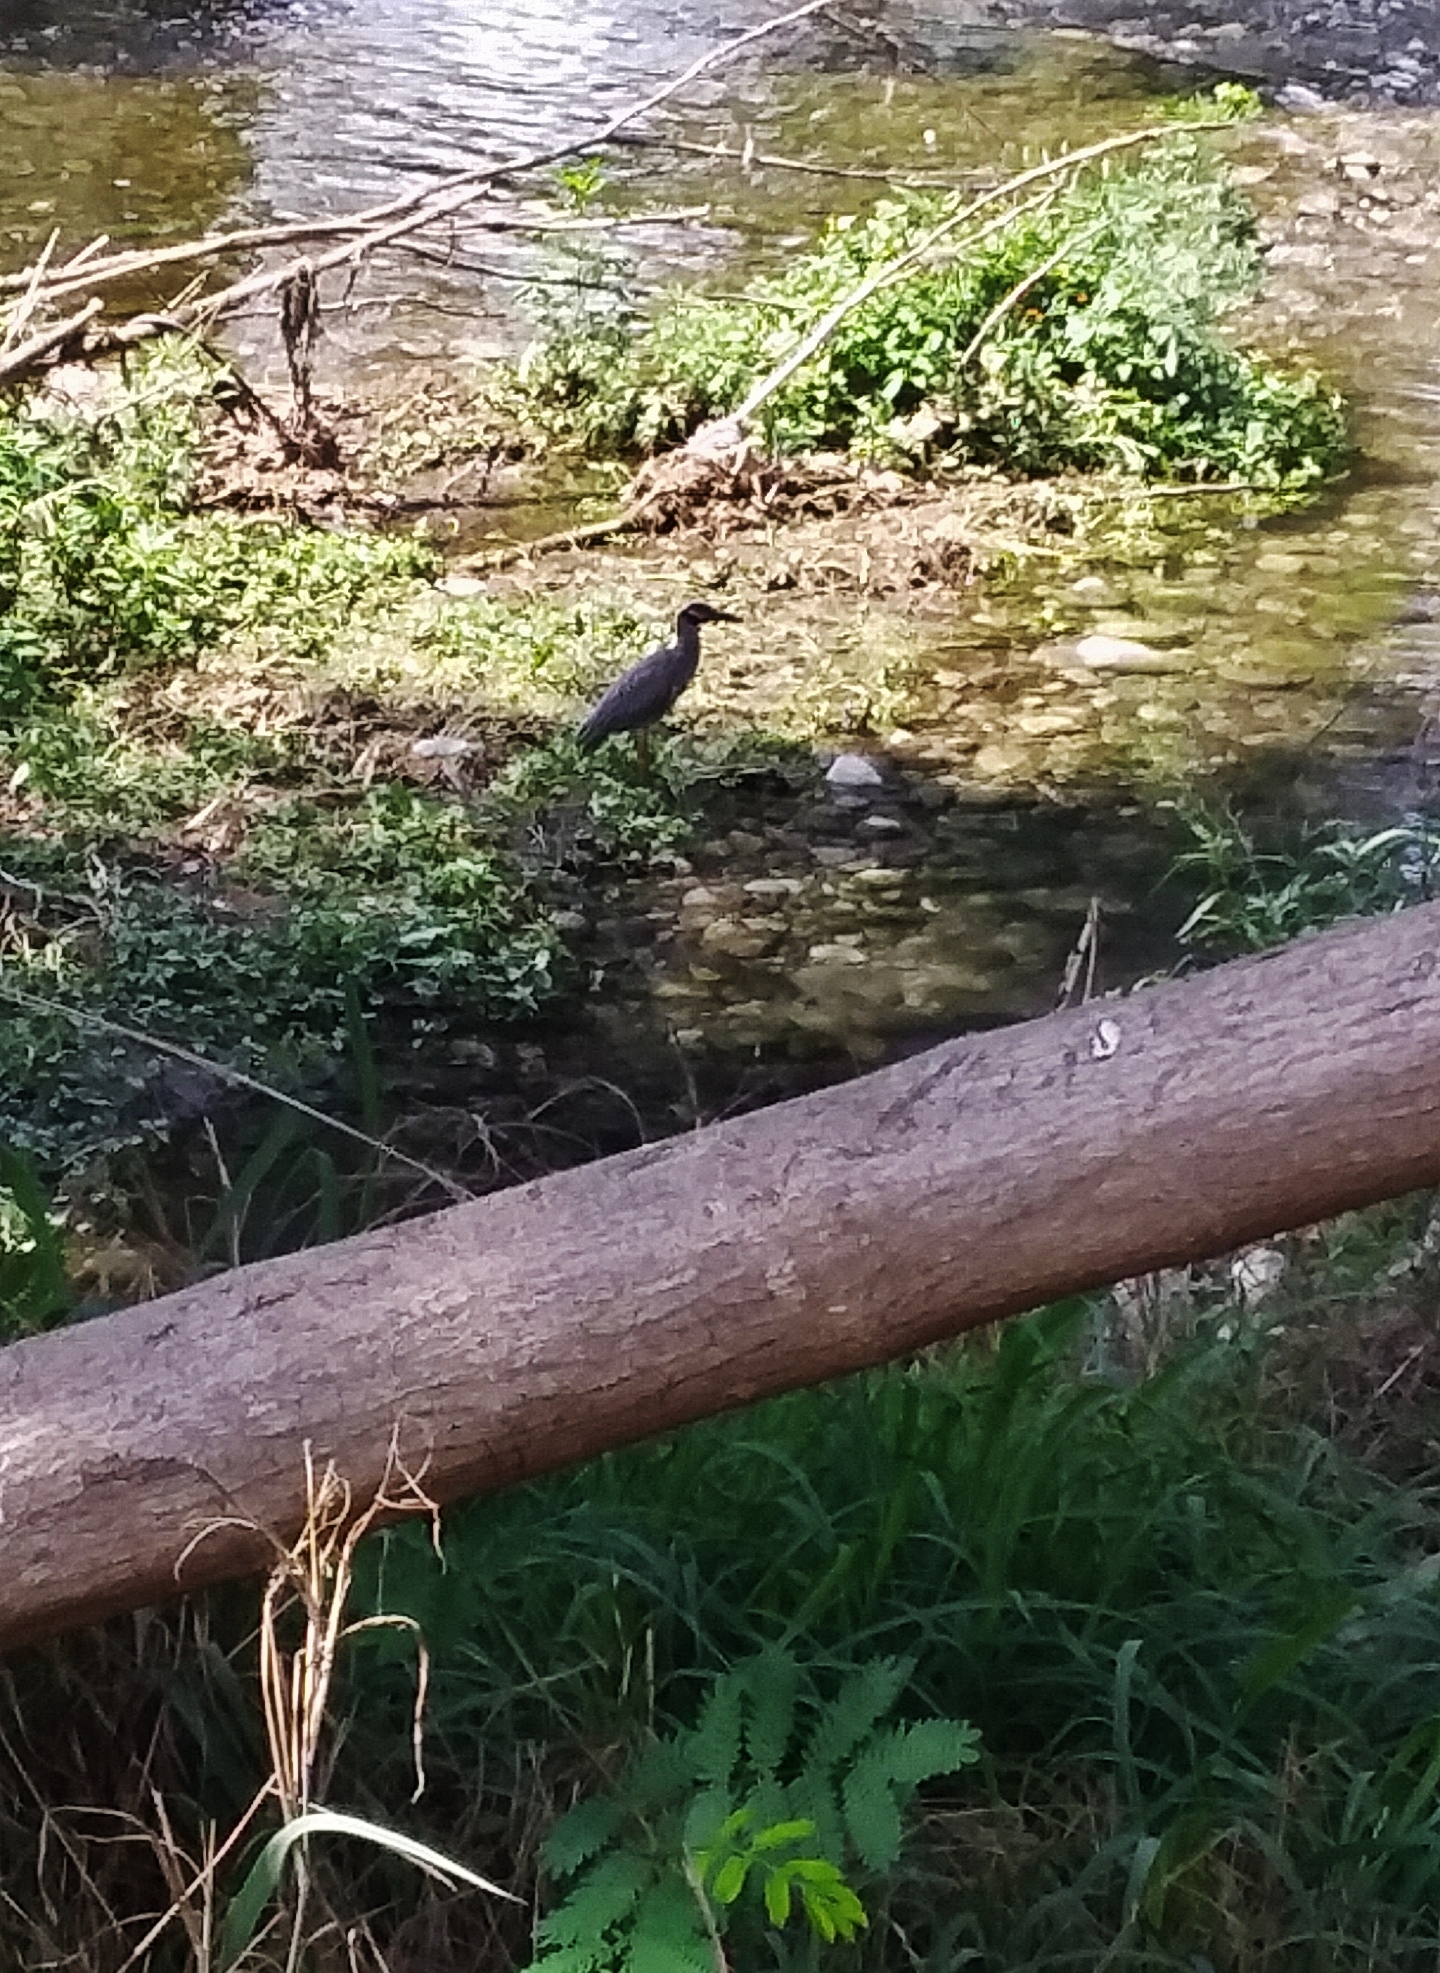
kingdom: Animalia
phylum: Chordata
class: Aves
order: Pelecaniformes
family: Ardeidae
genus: Nyctanassa
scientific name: Nyctanassa violacea
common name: Yellow-crowned night heron
